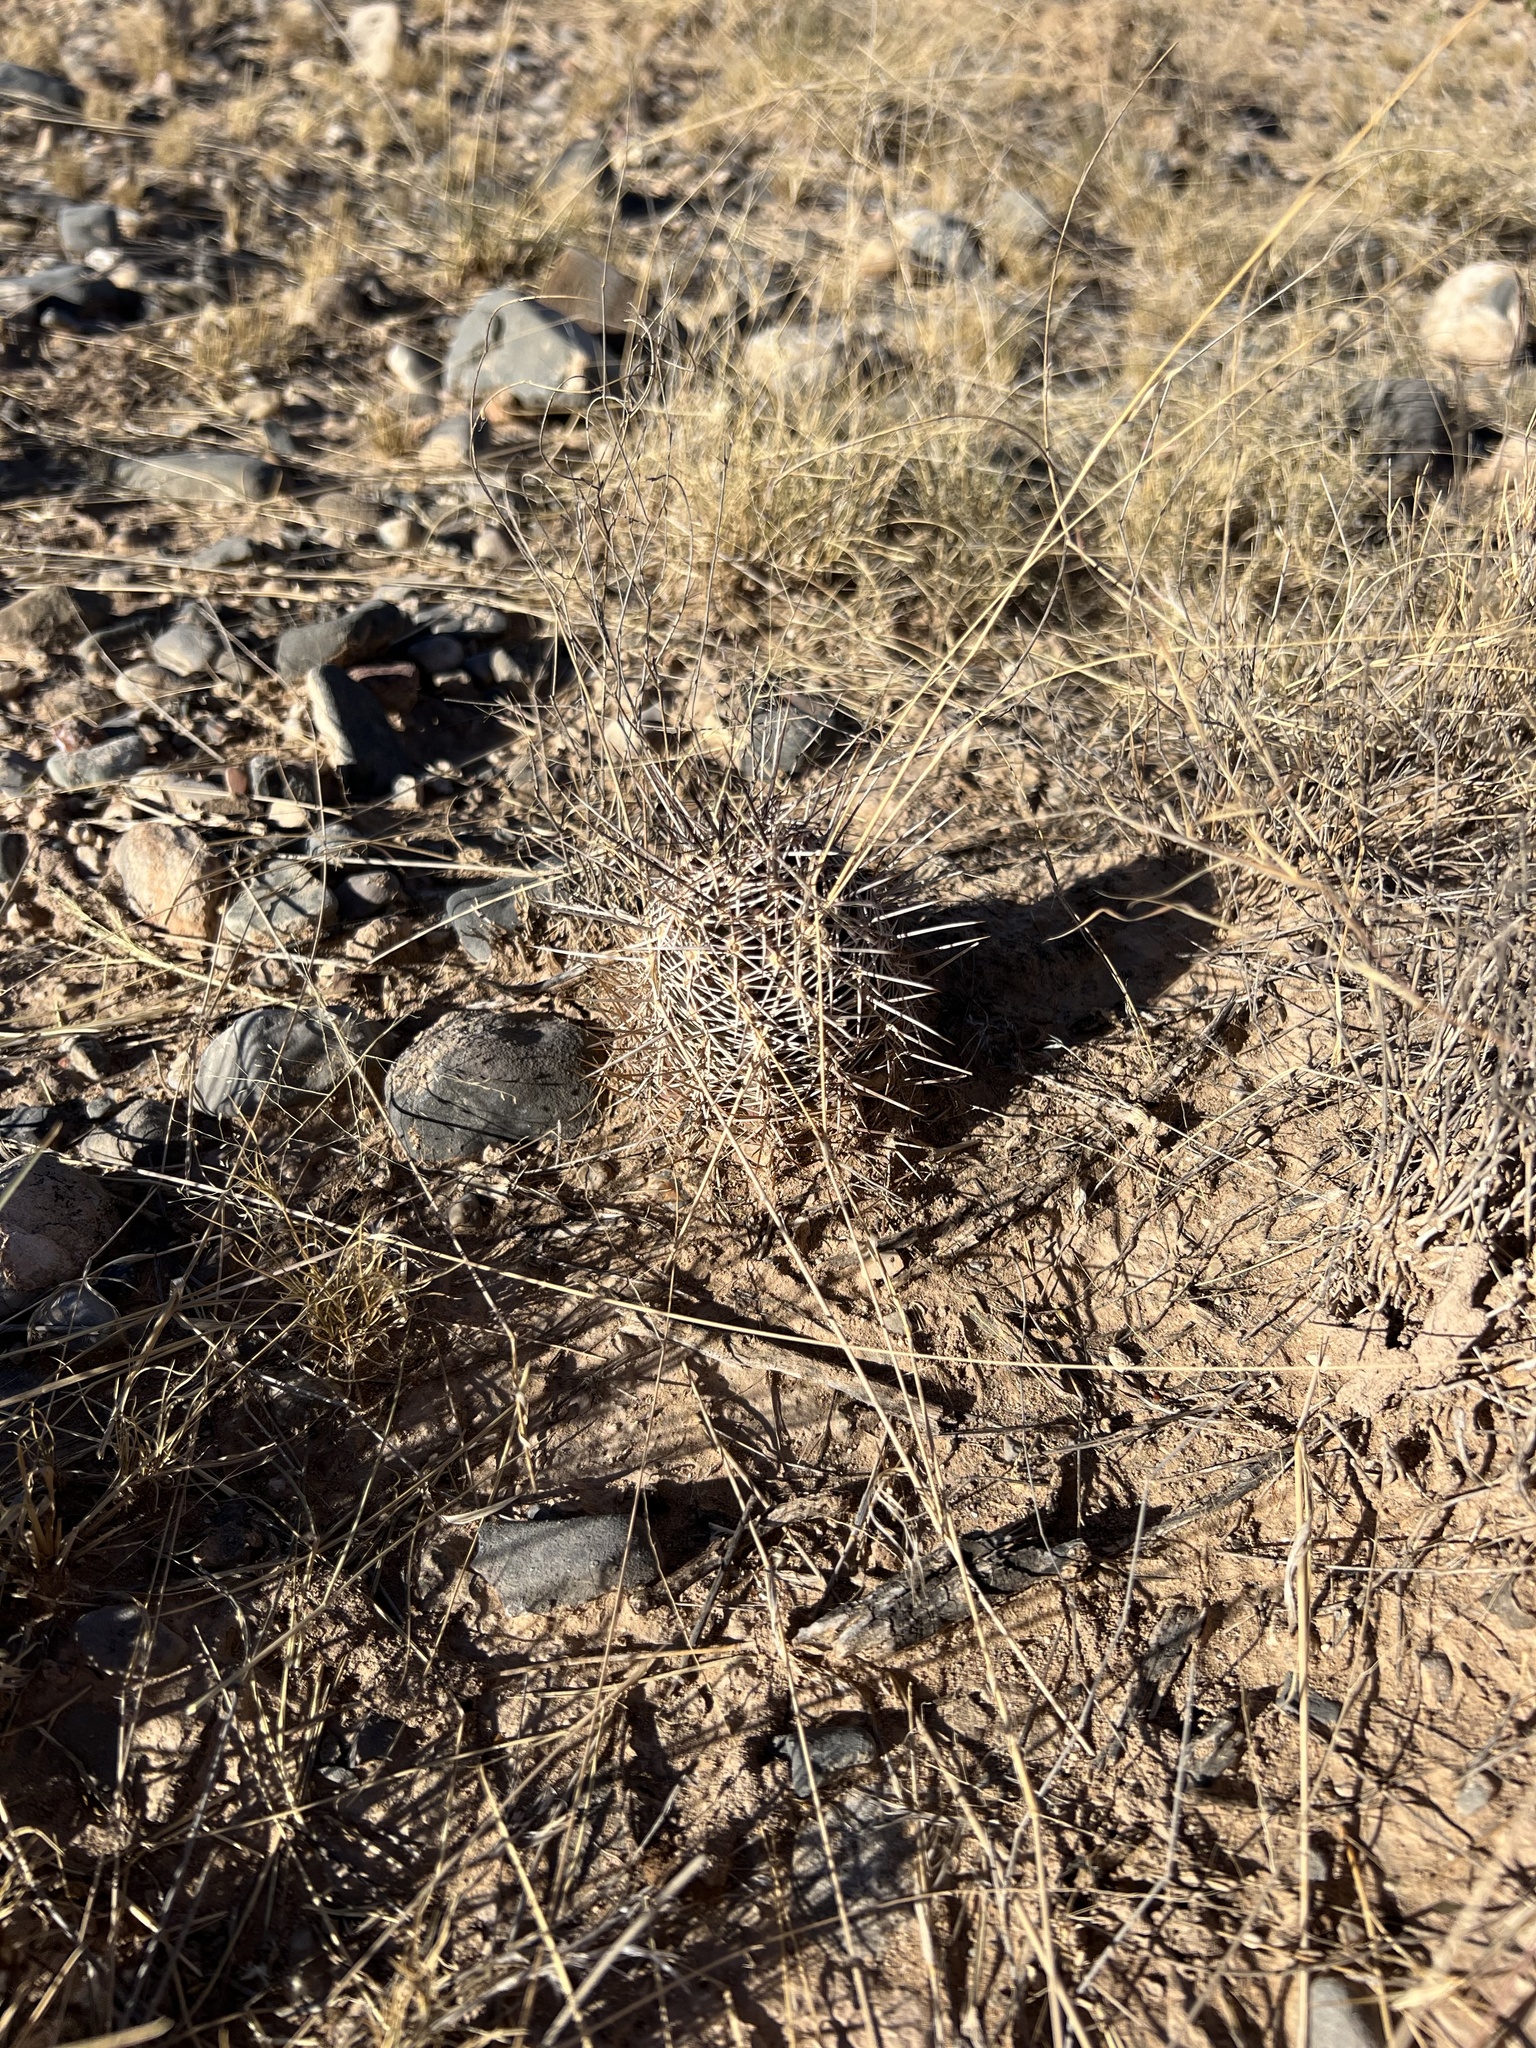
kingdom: Plantae
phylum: Tracheophyta
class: Magnoliopsida
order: Caryophyllales
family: Cactaceae
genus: Echinocereus
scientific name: Echinocereus fendleri
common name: Fendler's hedgehog cactus
